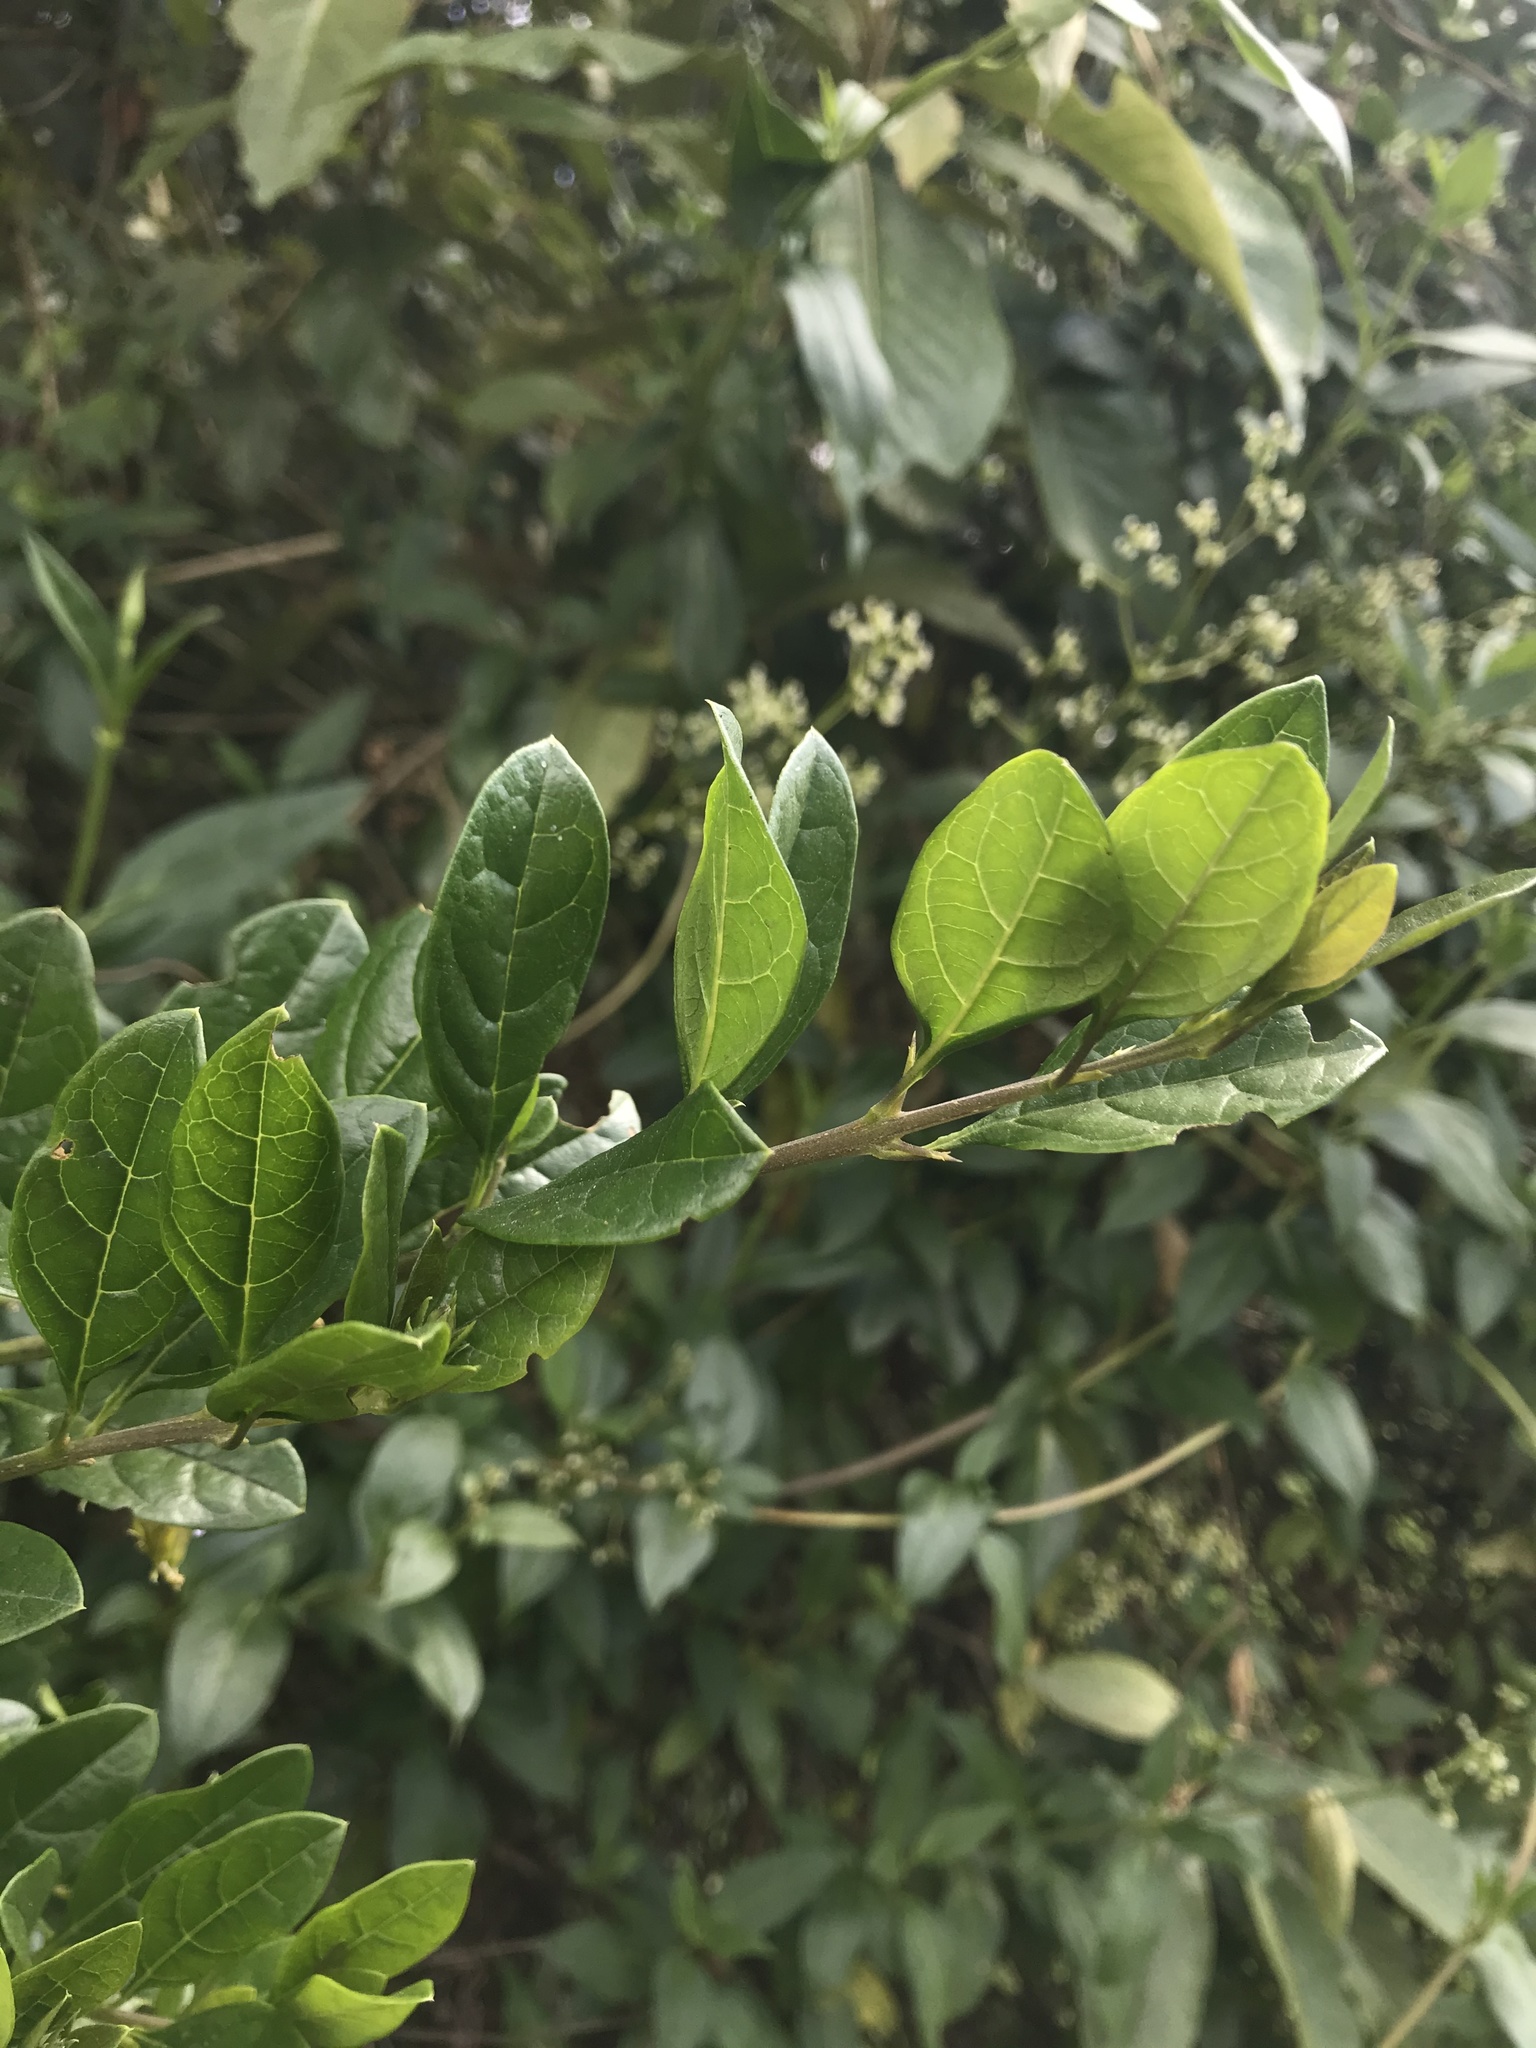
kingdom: Plantae
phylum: Tracheophyta
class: Magnoliopsida
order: Lamiales
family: Verbenaceae
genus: Duranta
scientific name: Duranta mutisii
